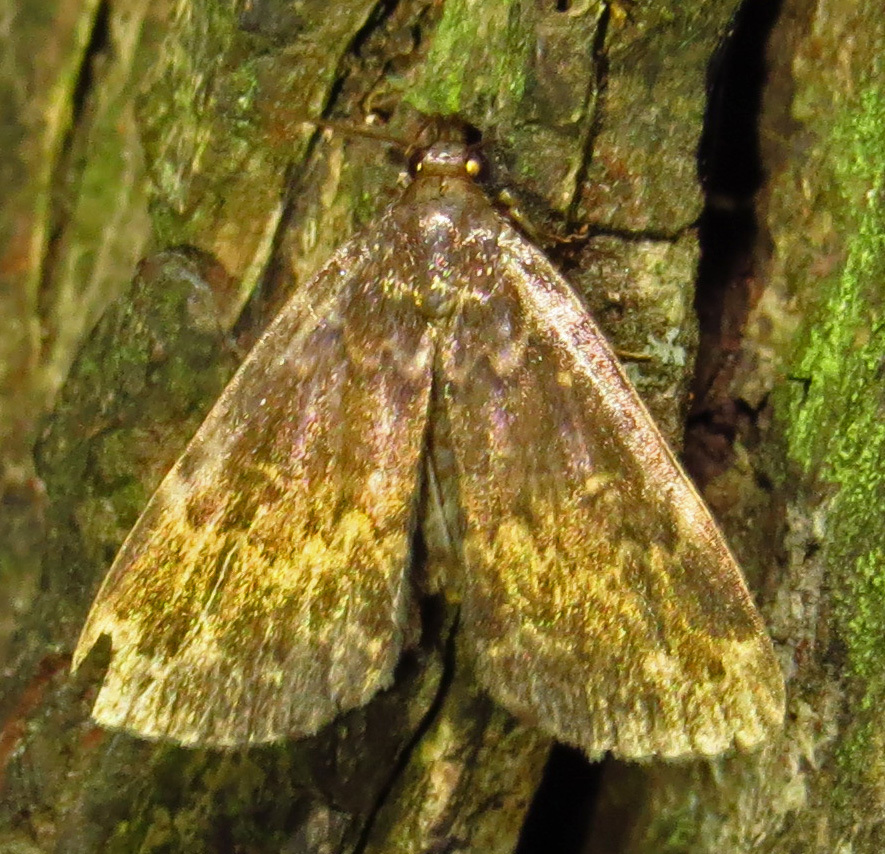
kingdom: Animalia
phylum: Arthropoda
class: Insecta
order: Lepidoptera
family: Erebidae
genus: Idia
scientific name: Idia lubricalis
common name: Twin-striped tabby
